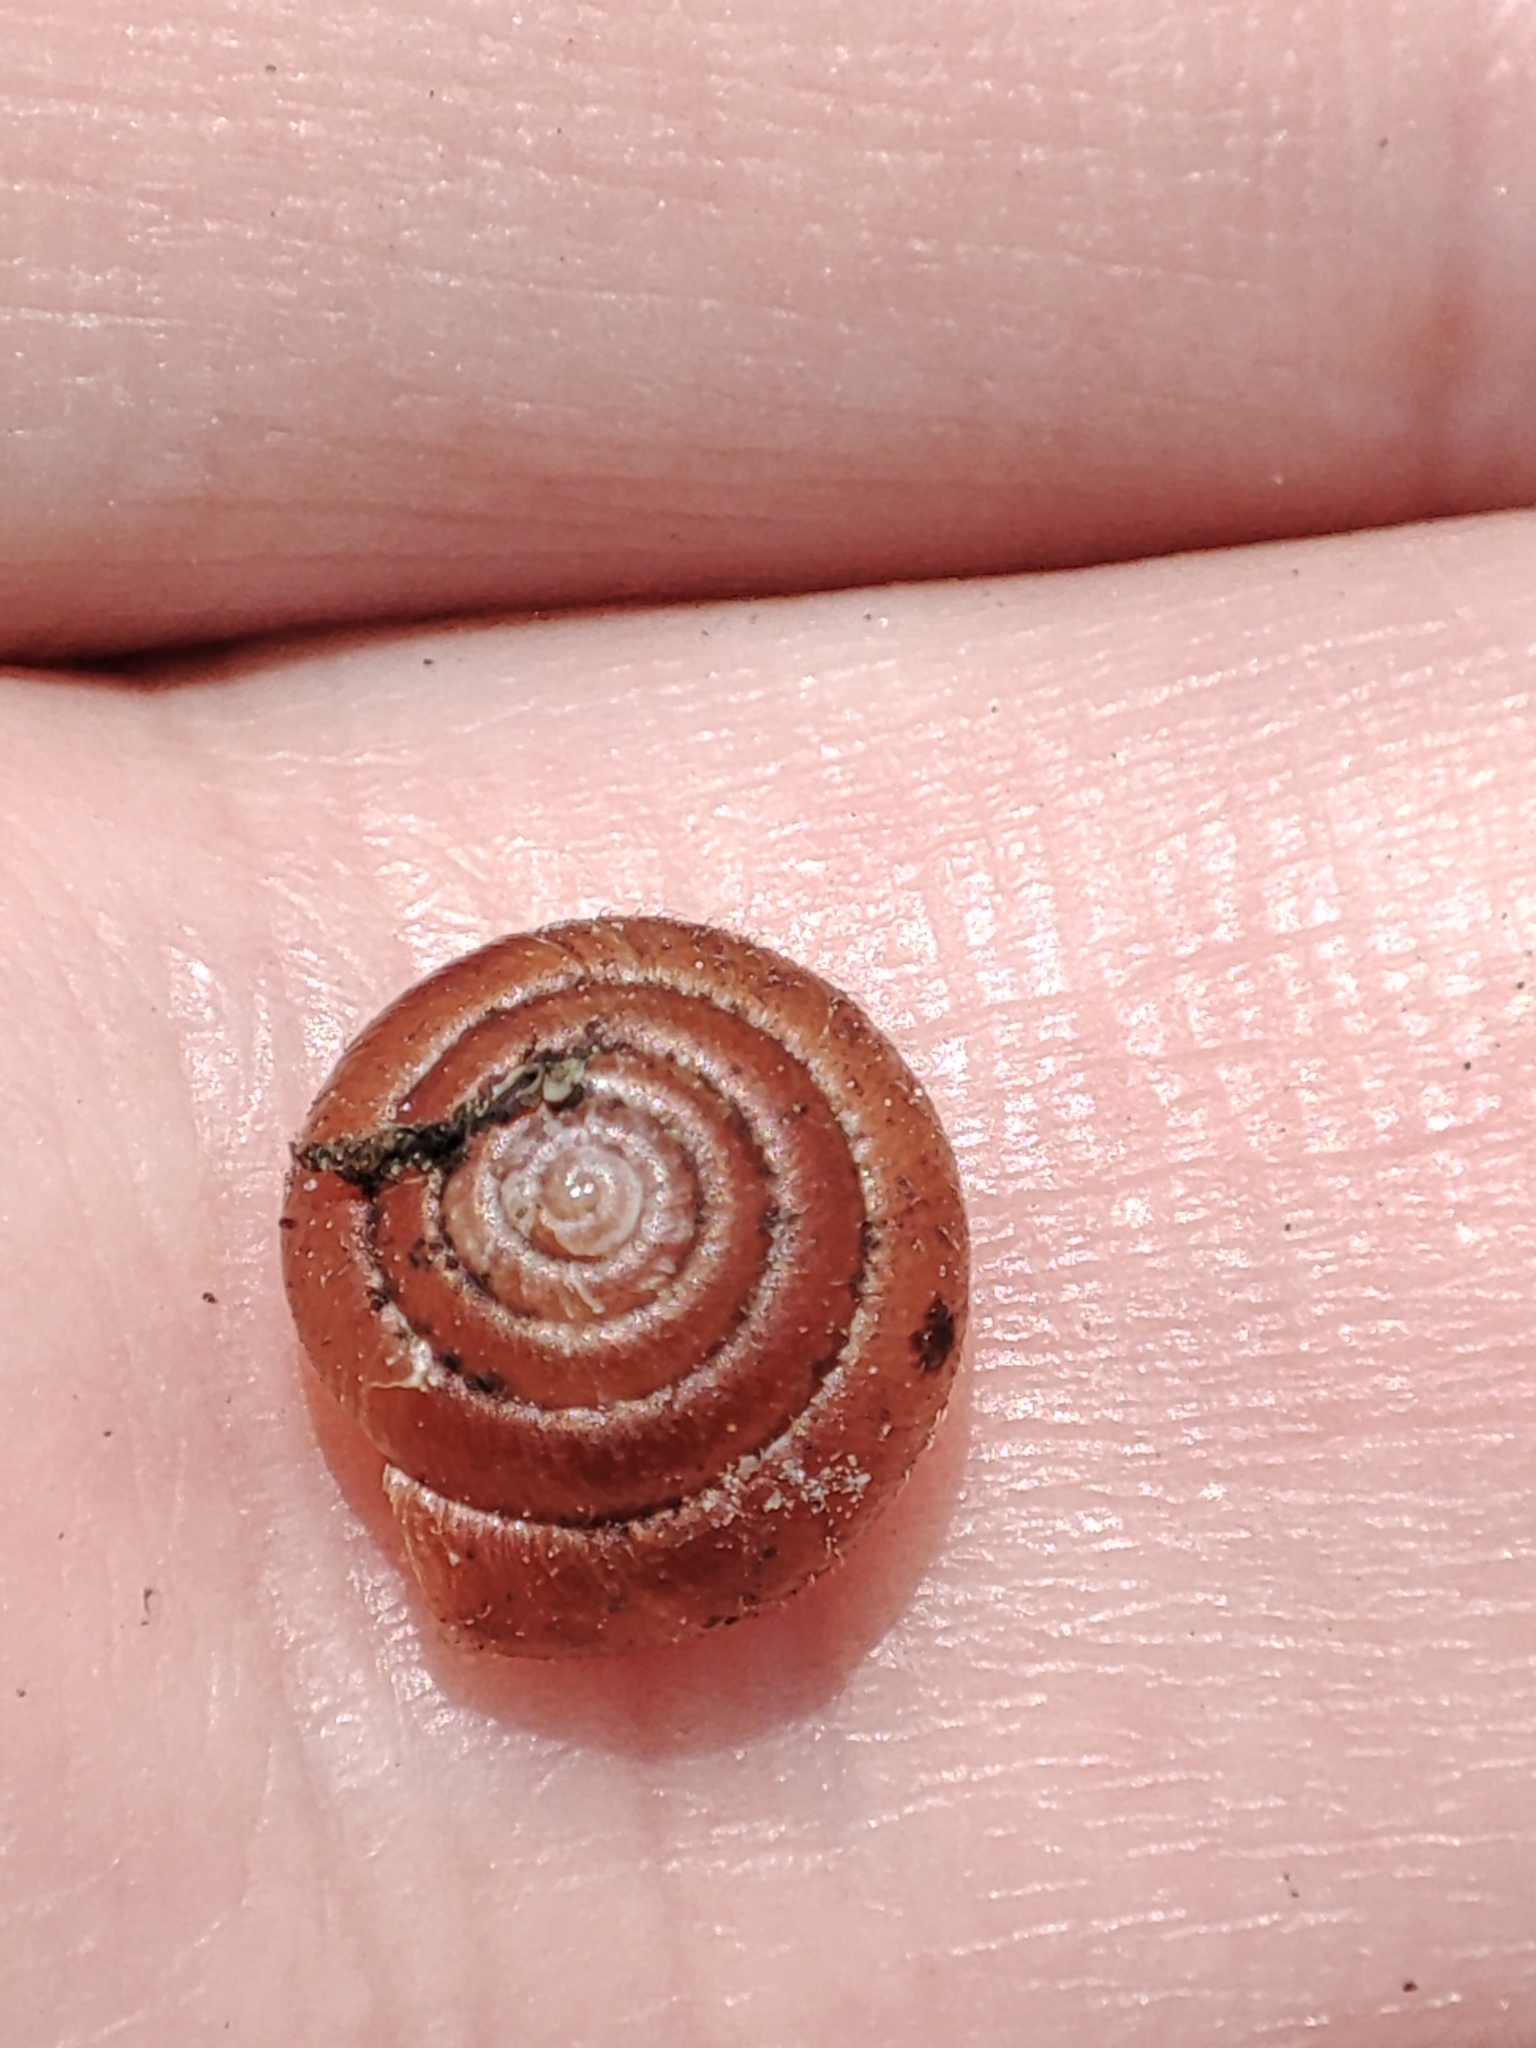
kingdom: Animalia
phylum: Mollusca
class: Gastropoda
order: Stylommatophora
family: Hygromiidae
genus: Trochulus
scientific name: Trochulus hispidus
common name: Hairy snail
